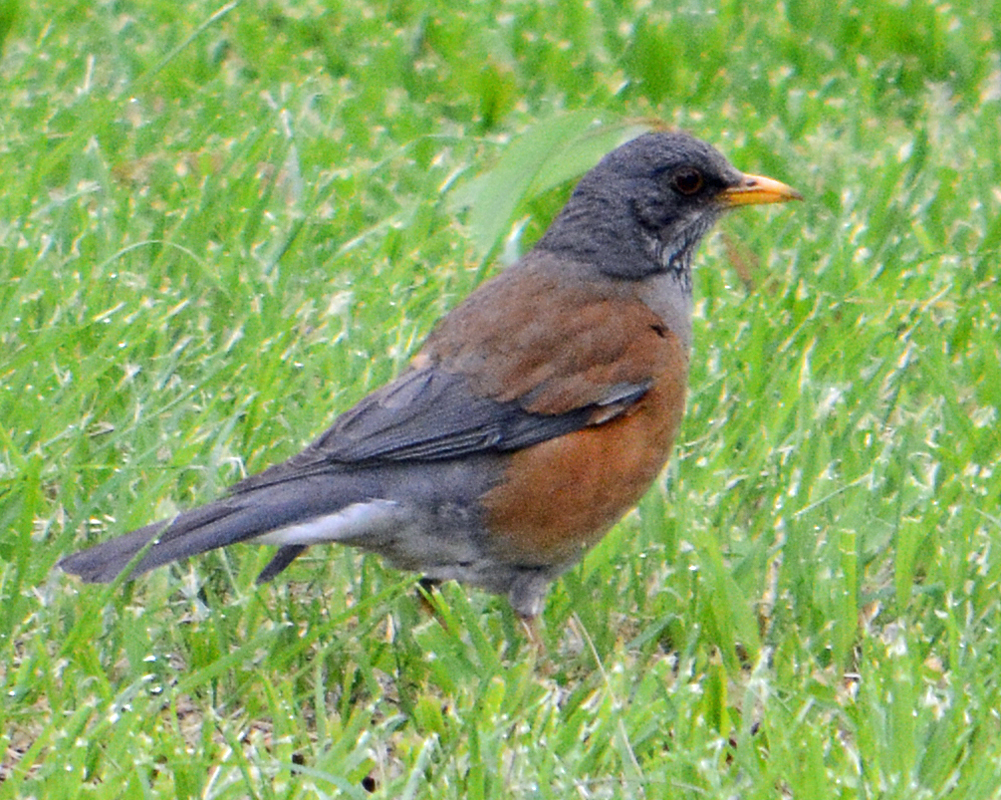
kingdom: Animalia
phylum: Chordata
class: Aves
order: Passeriformes
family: Turdidae
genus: Turdus
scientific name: Turdus rufopalliatus
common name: Rufous-backed robin
